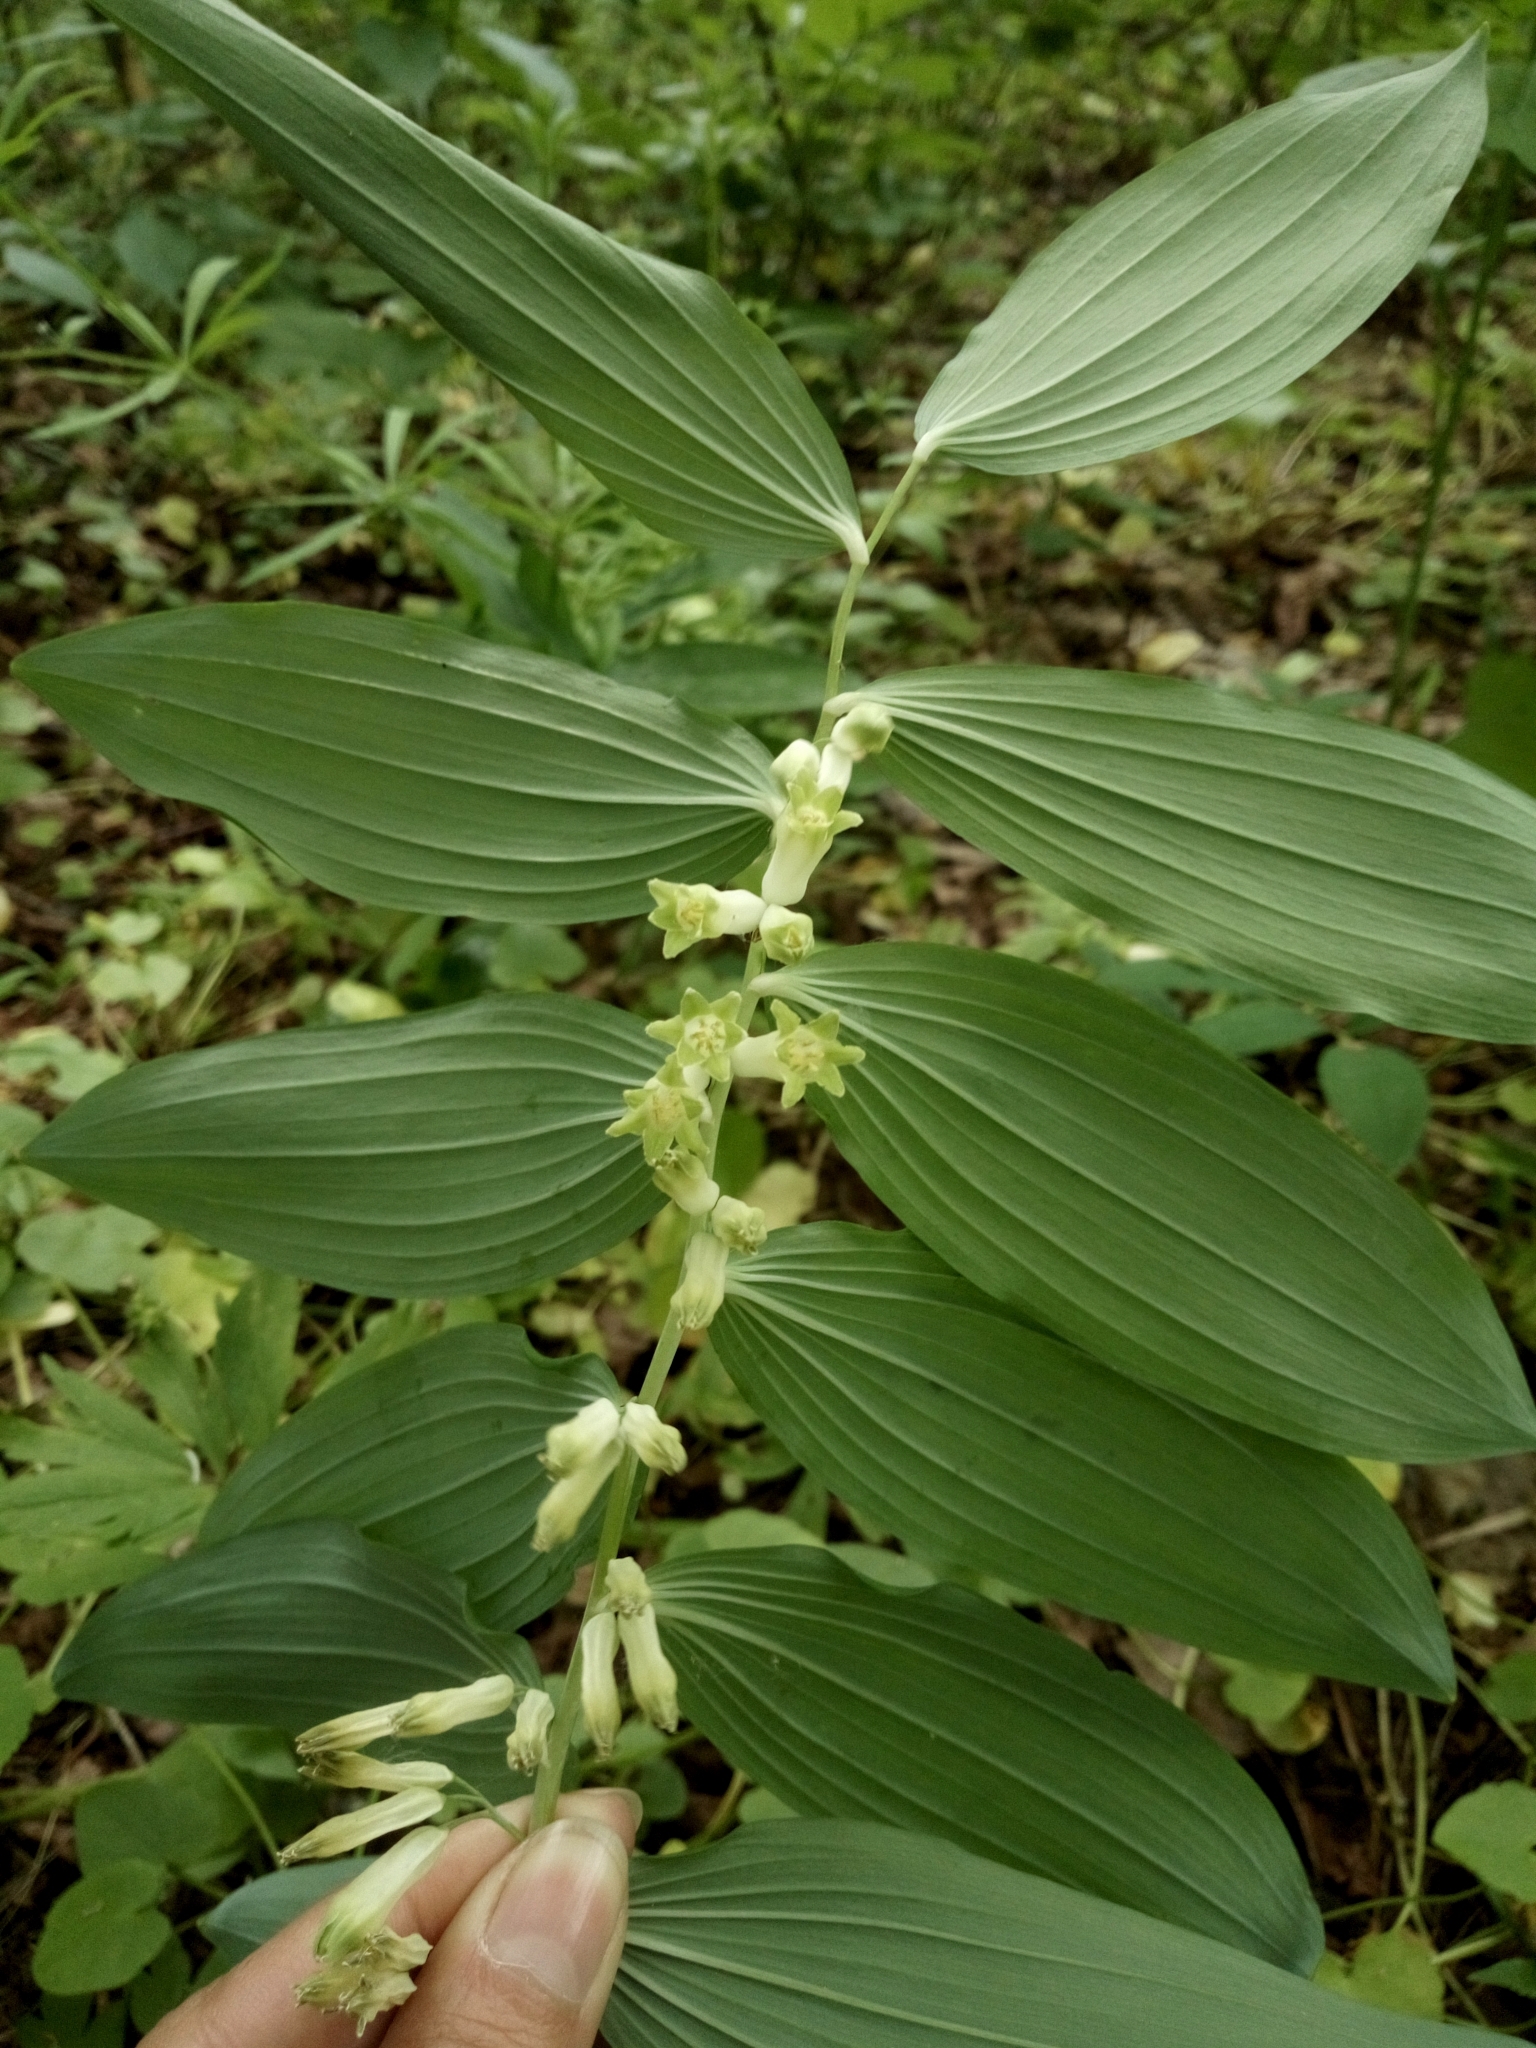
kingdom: Plantae
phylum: Tracheophyta
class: Liliopsida
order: Asparagales
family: Asparagaceae
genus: Polygonatum
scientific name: Polygonatum multiflorum
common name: Solomon's-seal
